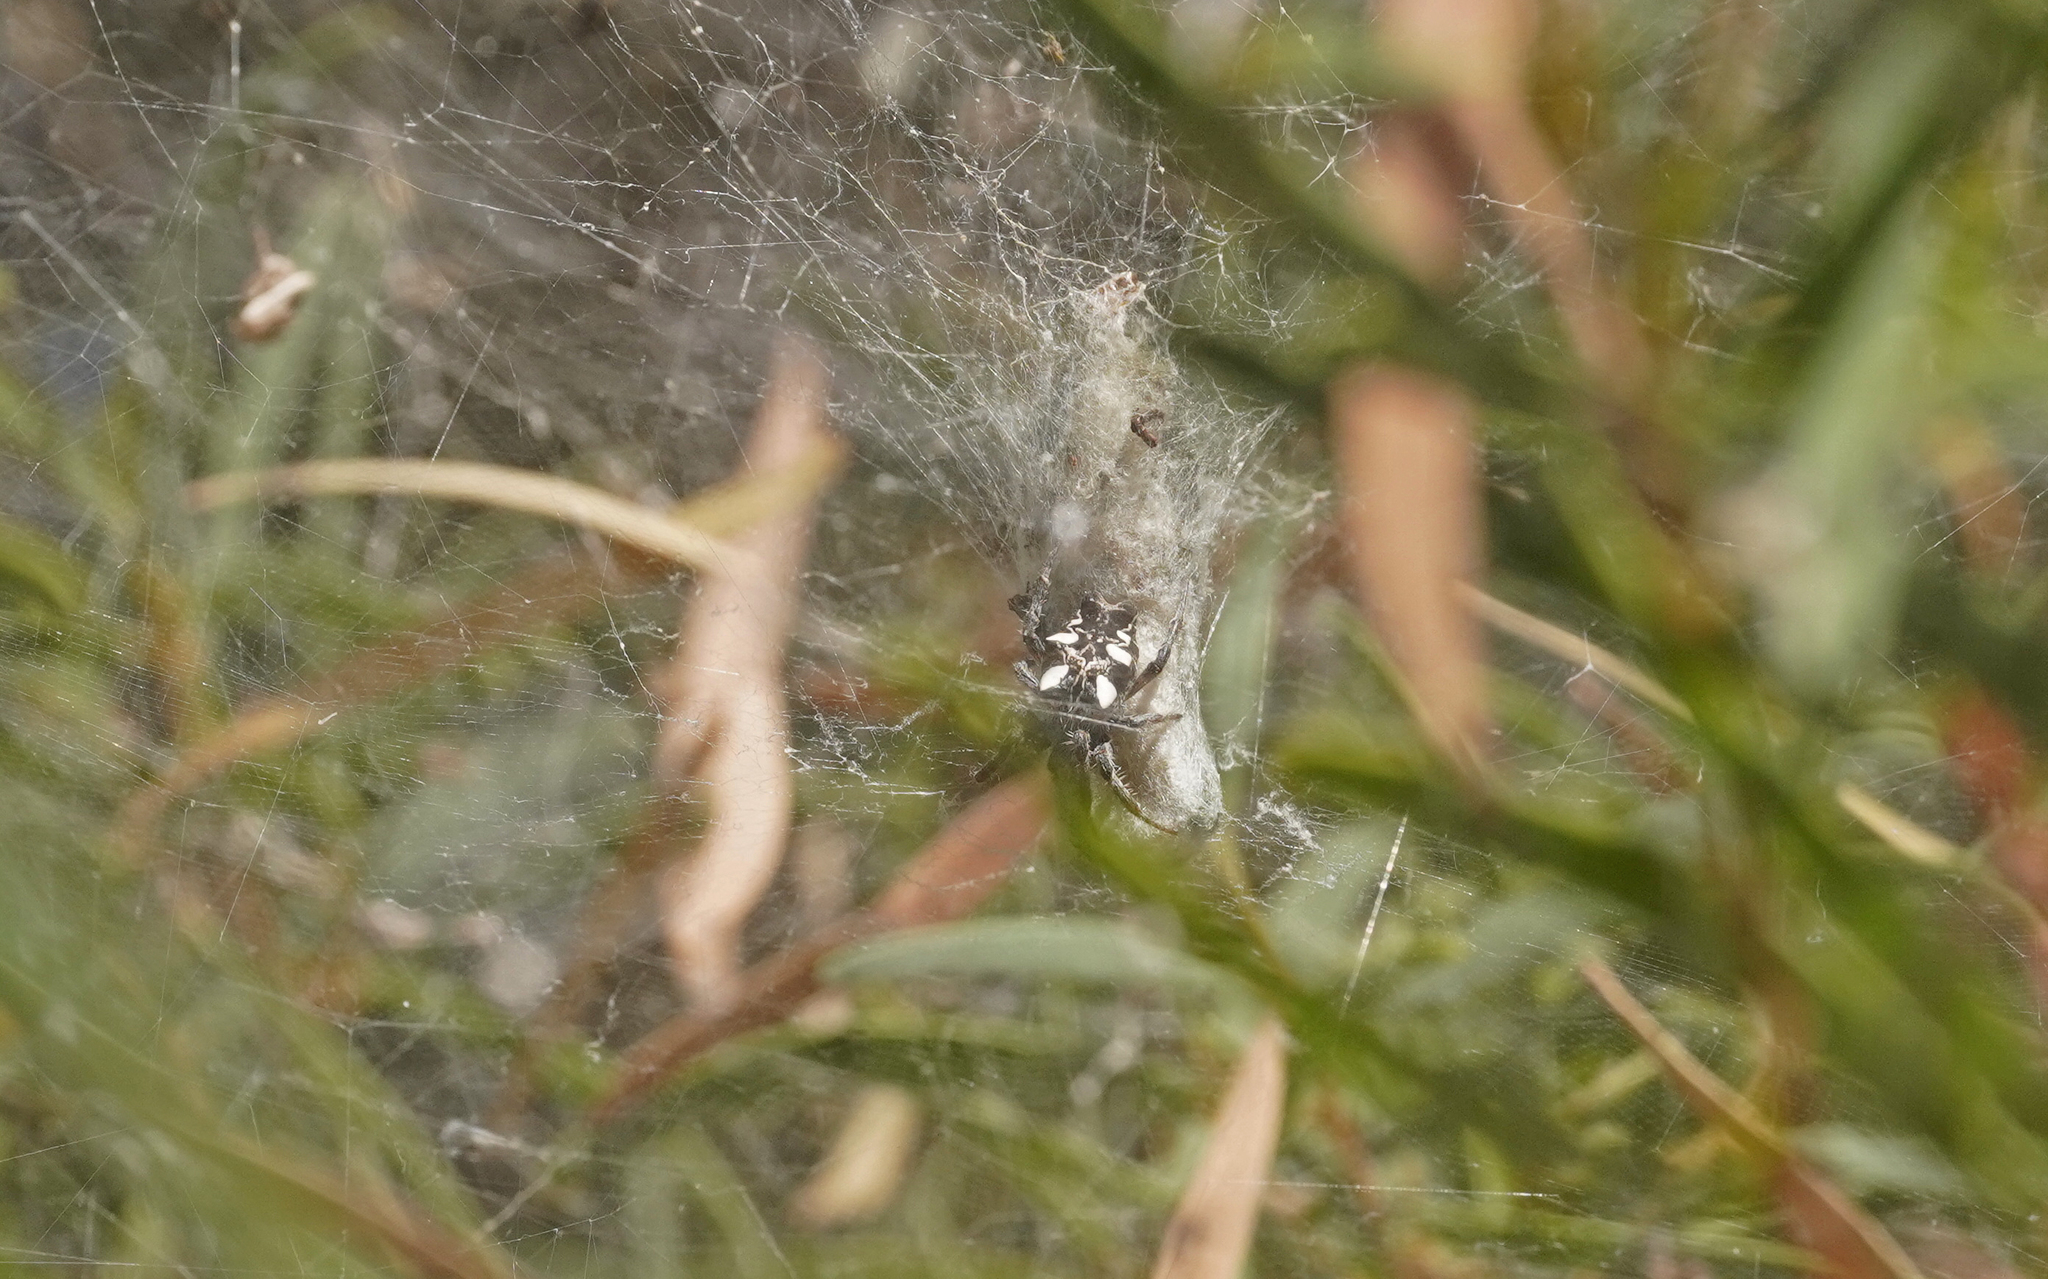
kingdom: Animalia
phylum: Arthropoda
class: Arachnida
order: Araneae
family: Araneidae
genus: Cyrtophora
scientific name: Cyrtophora citricola
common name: Orb weavers
